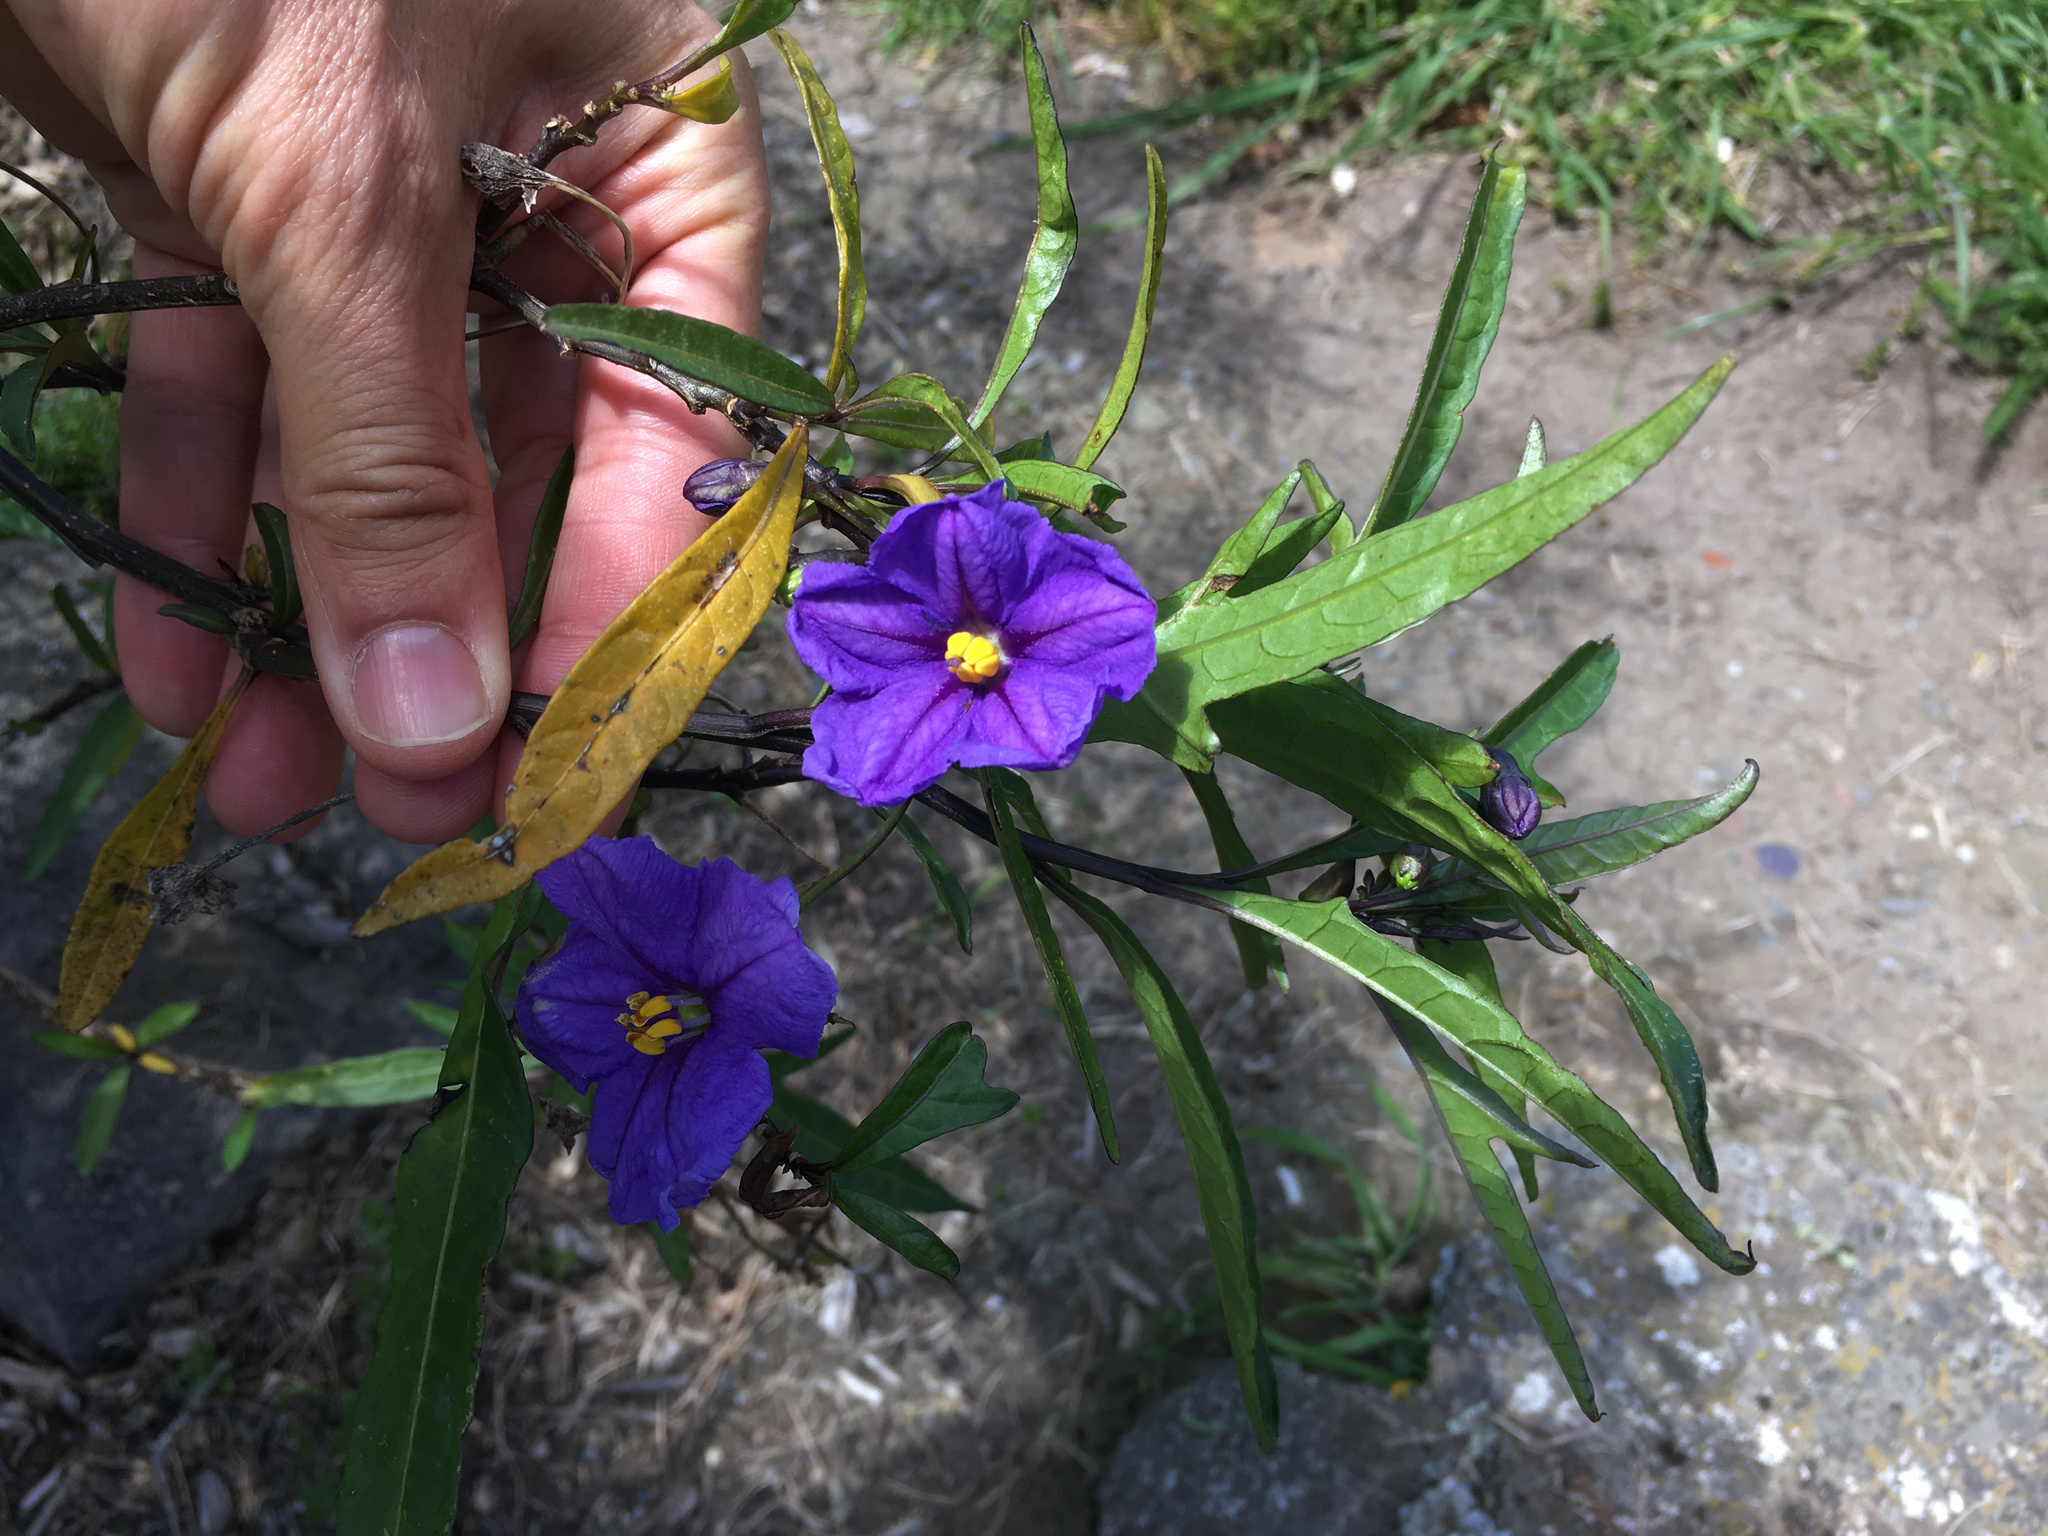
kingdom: Plantae
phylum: Tracheophyta
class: Magnoliopsida
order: Solanales
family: Solanaceae
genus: Solanum
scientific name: Solanum laciniatum
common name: Kangaroo-apple
